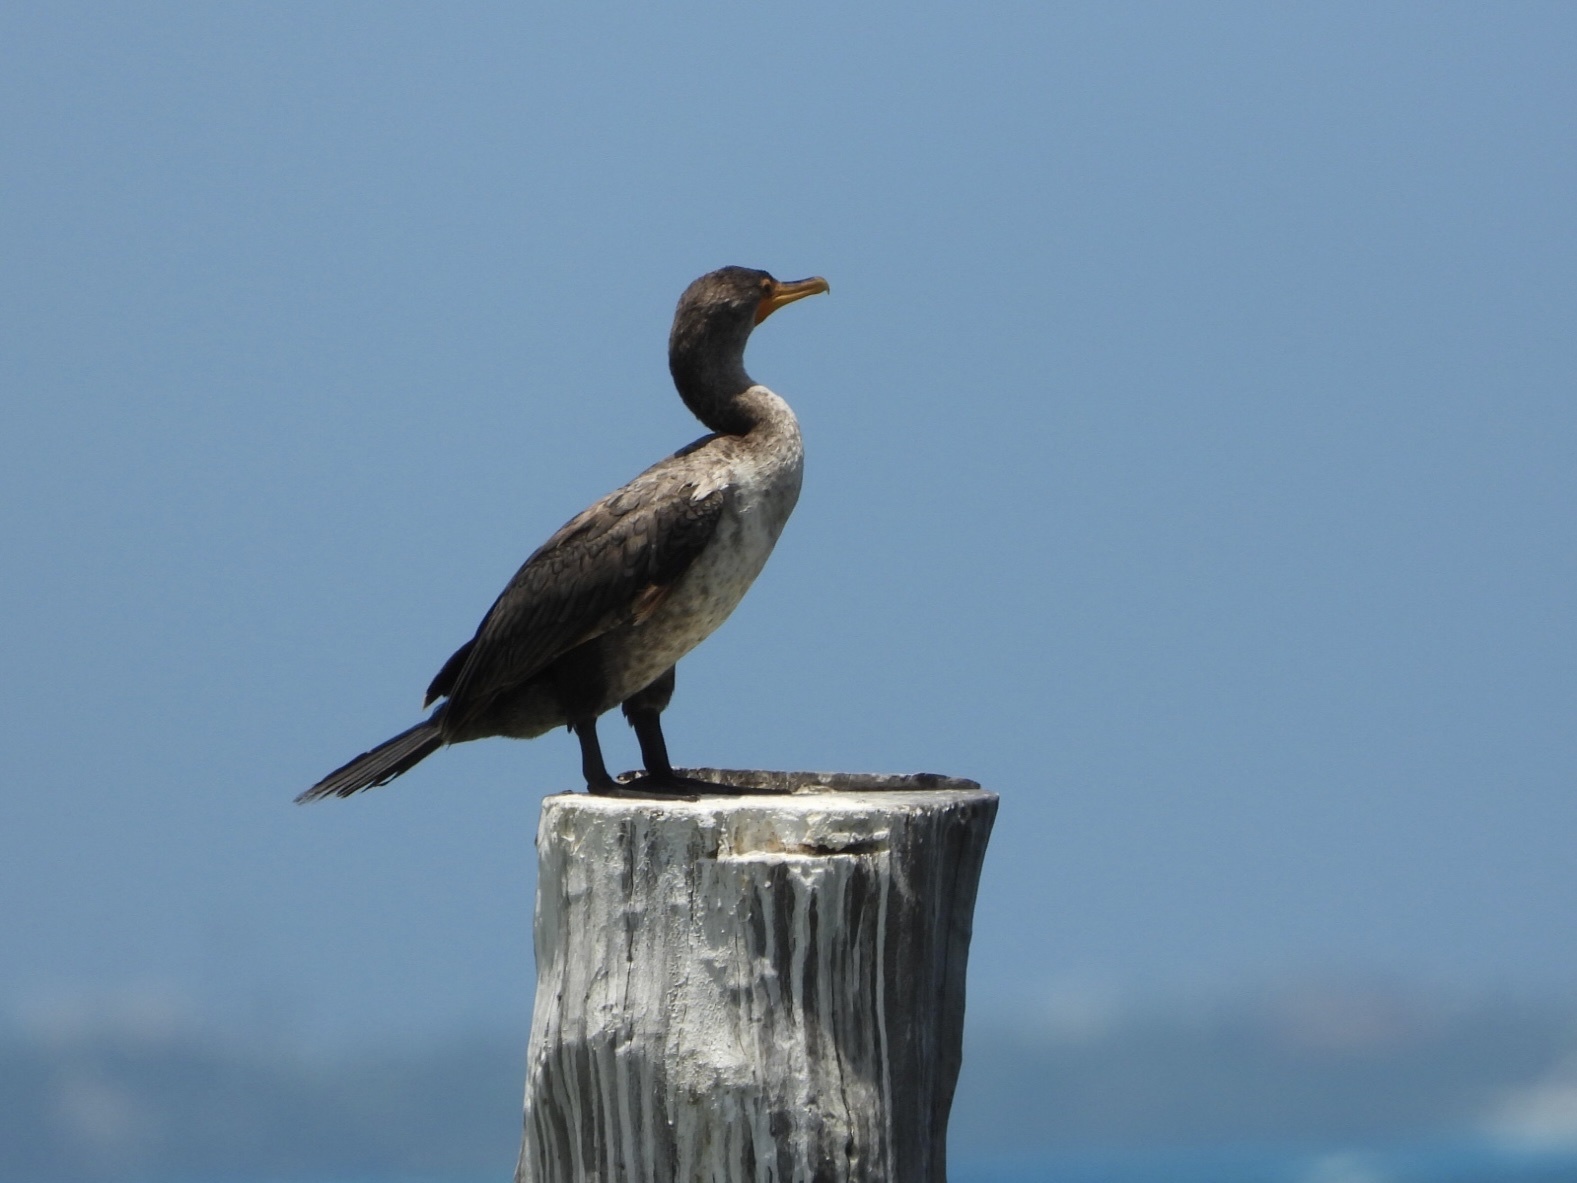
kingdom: Animalia
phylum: Chordata
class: Aves
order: Suliformes
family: Phalacrocoracidae
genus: Phalacrocorax
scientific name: Phalacrocorax auritus
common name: Double-crested cormorant
